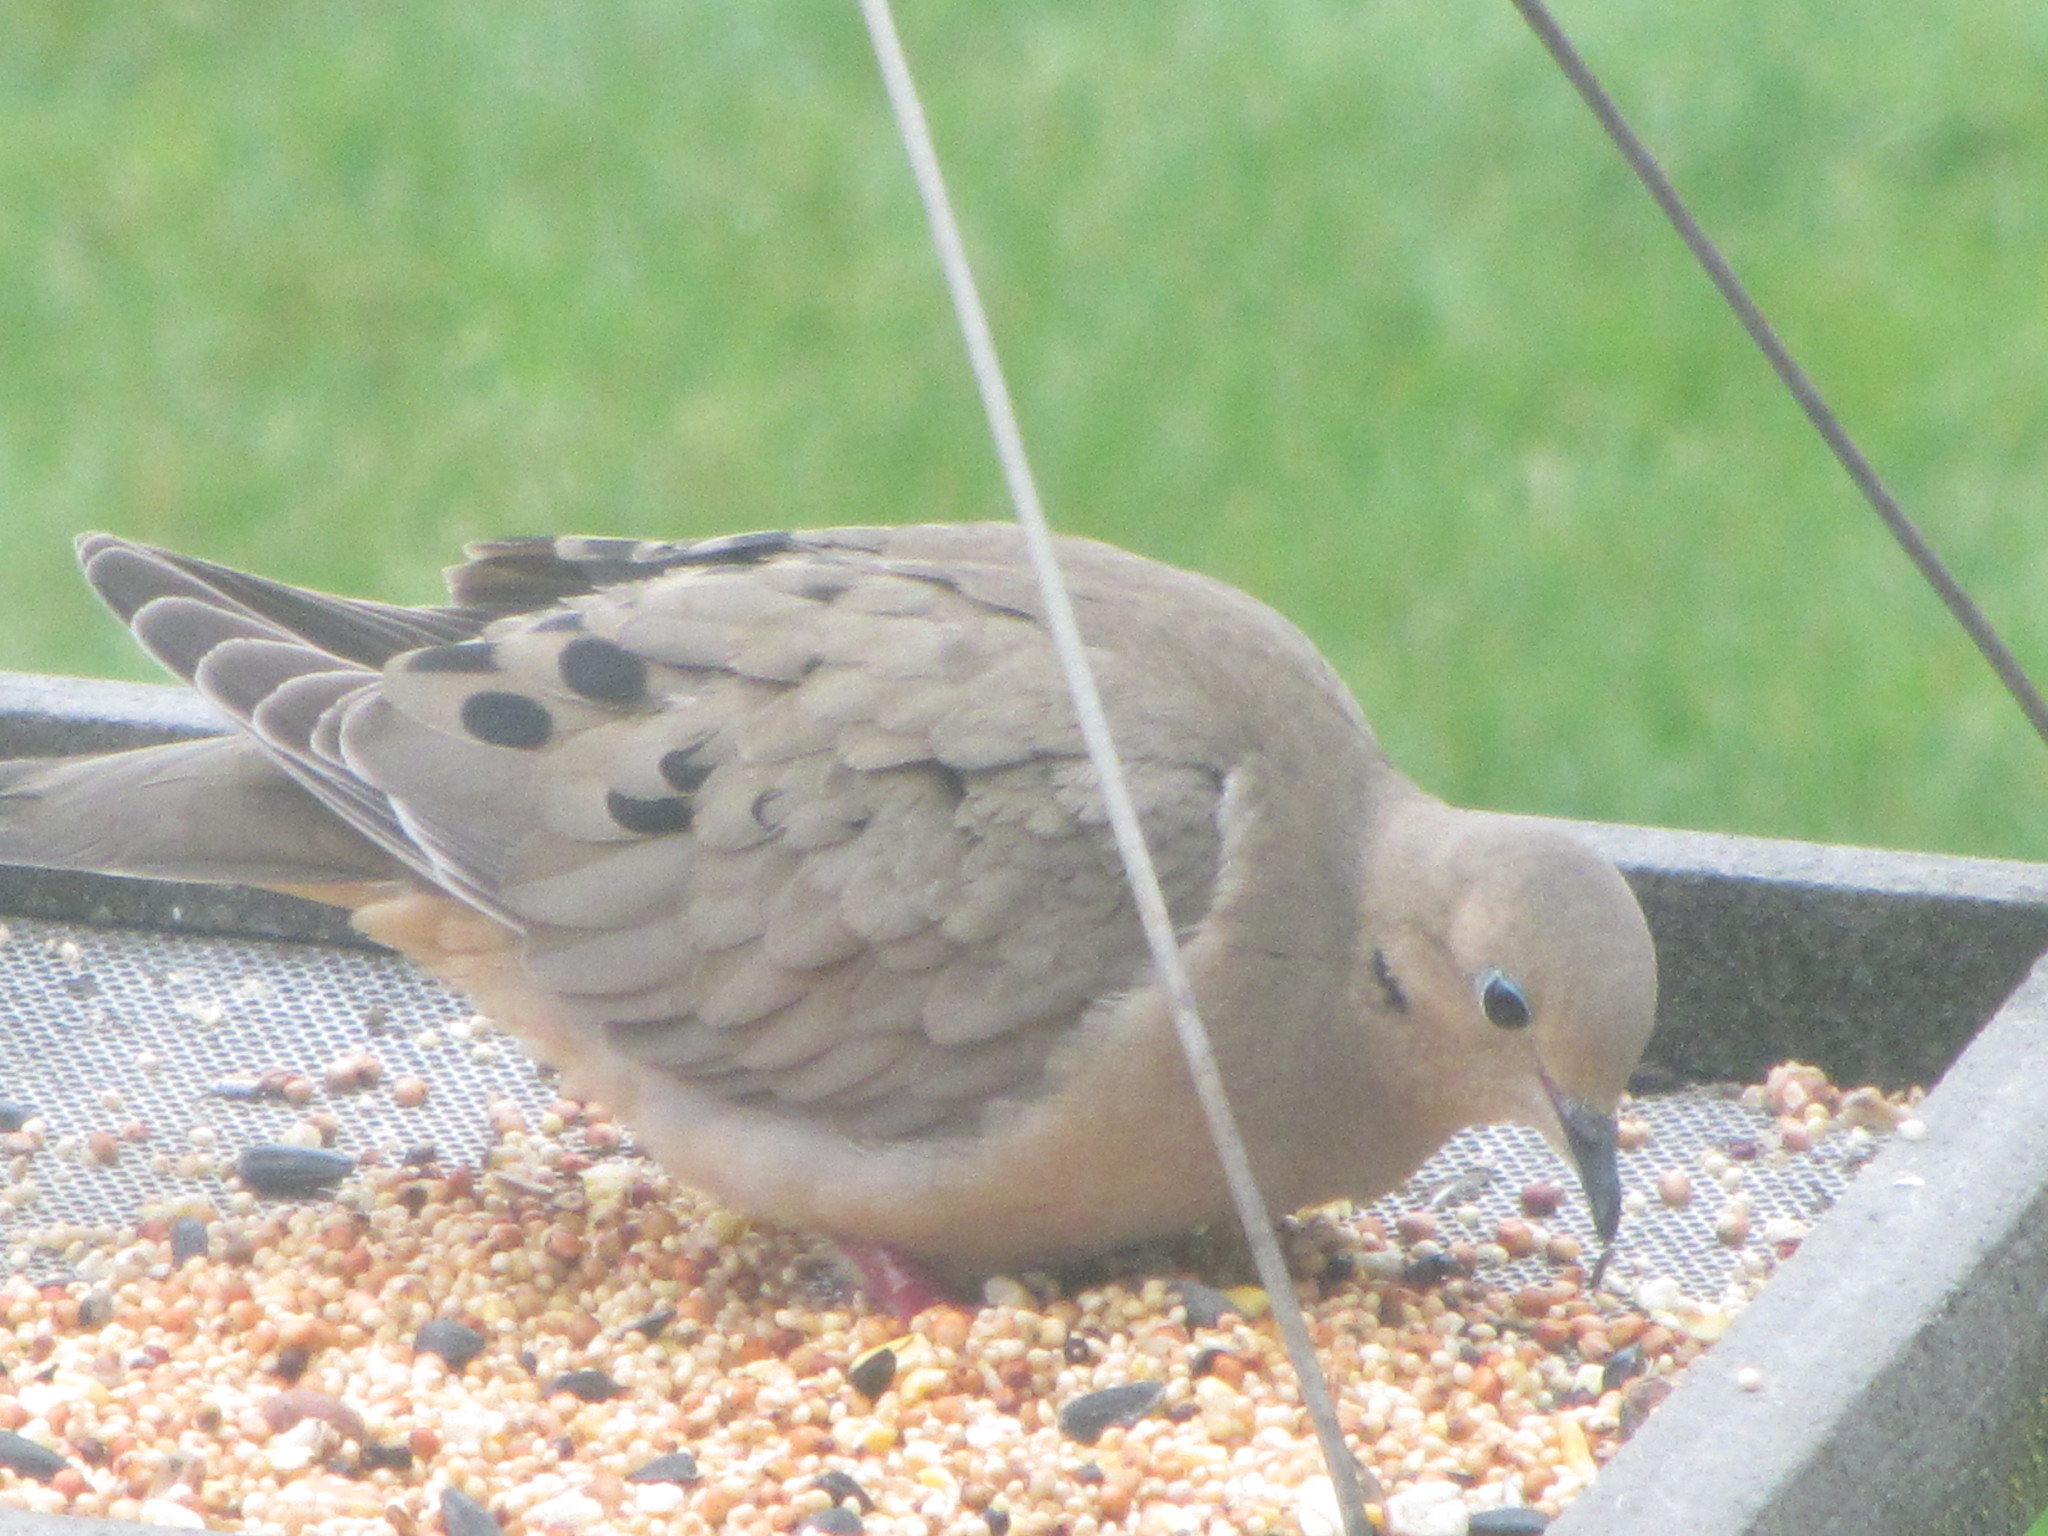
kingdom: Animalia
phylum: Chordata
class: Aves
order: Columbiformes
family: Columbidae
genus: Zenaida
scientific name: Zenaida macroura
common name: Mourning dove
